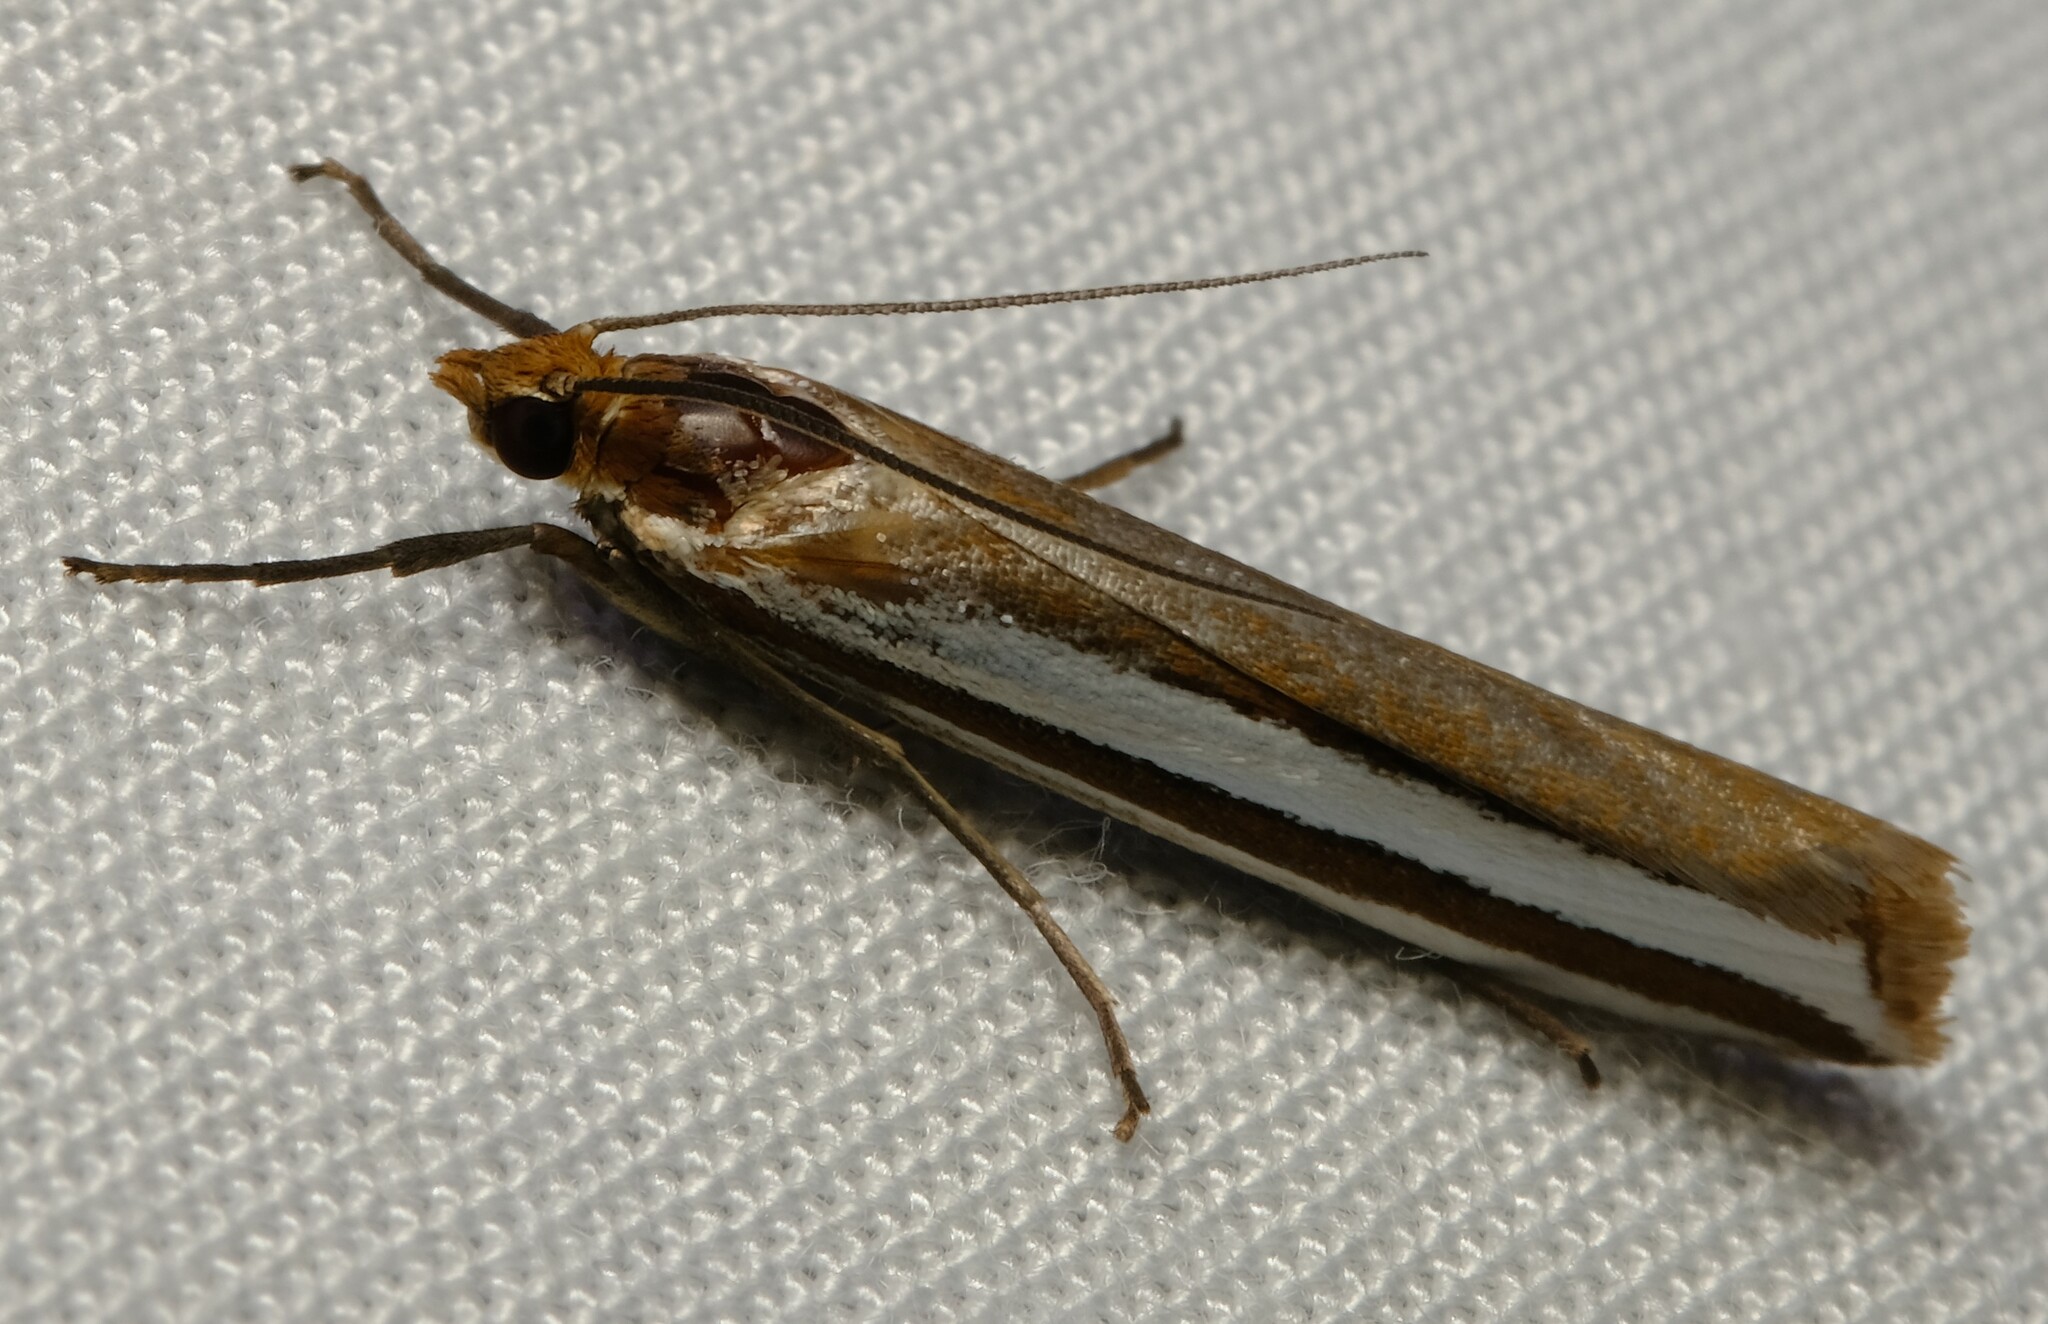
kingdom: Animalia
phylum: Arthropoda
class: Insecta
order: Lepidoptera
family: Crambidae
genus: Corynophora
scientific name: Corynophora lativittalis
